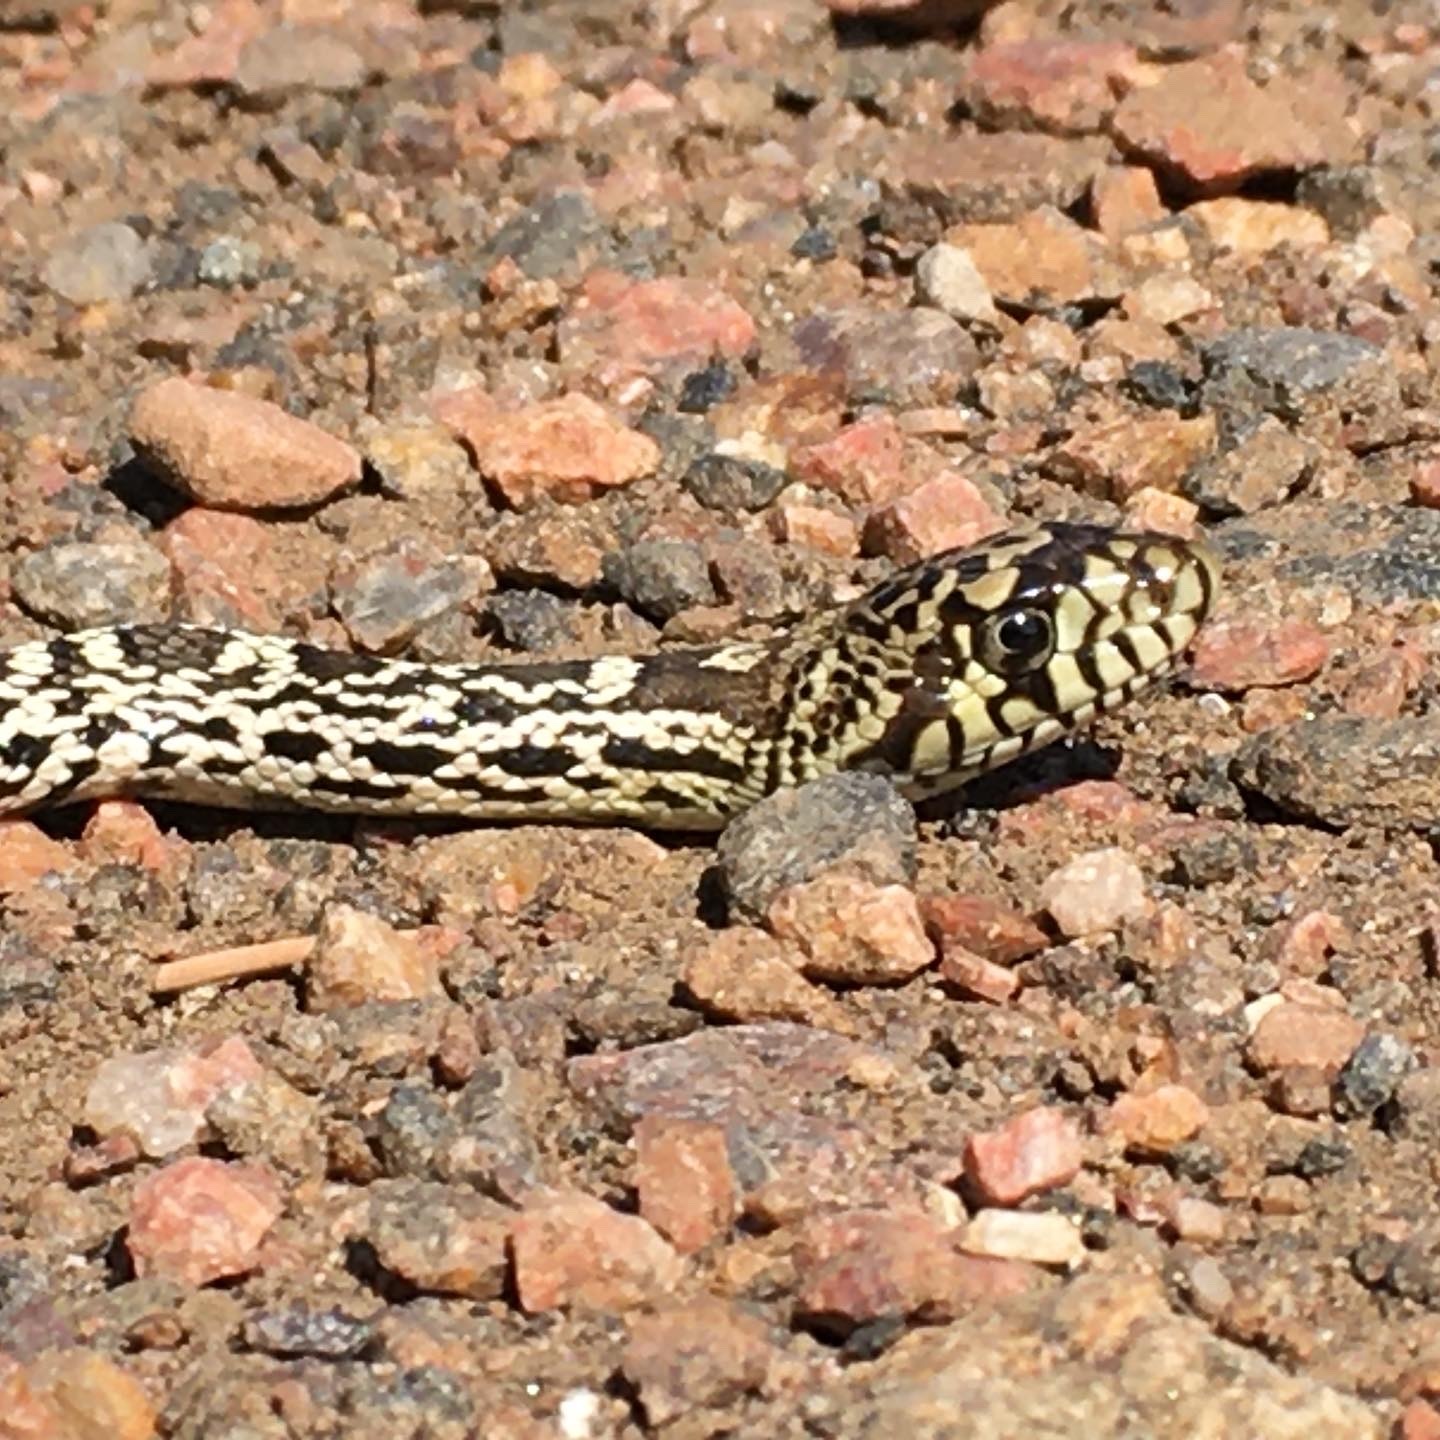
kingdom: Animalia
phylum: Chordata
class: Squamata
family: Colubridae
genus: Pituophis
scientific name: Pituophis catenifer
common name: Gopher snake
